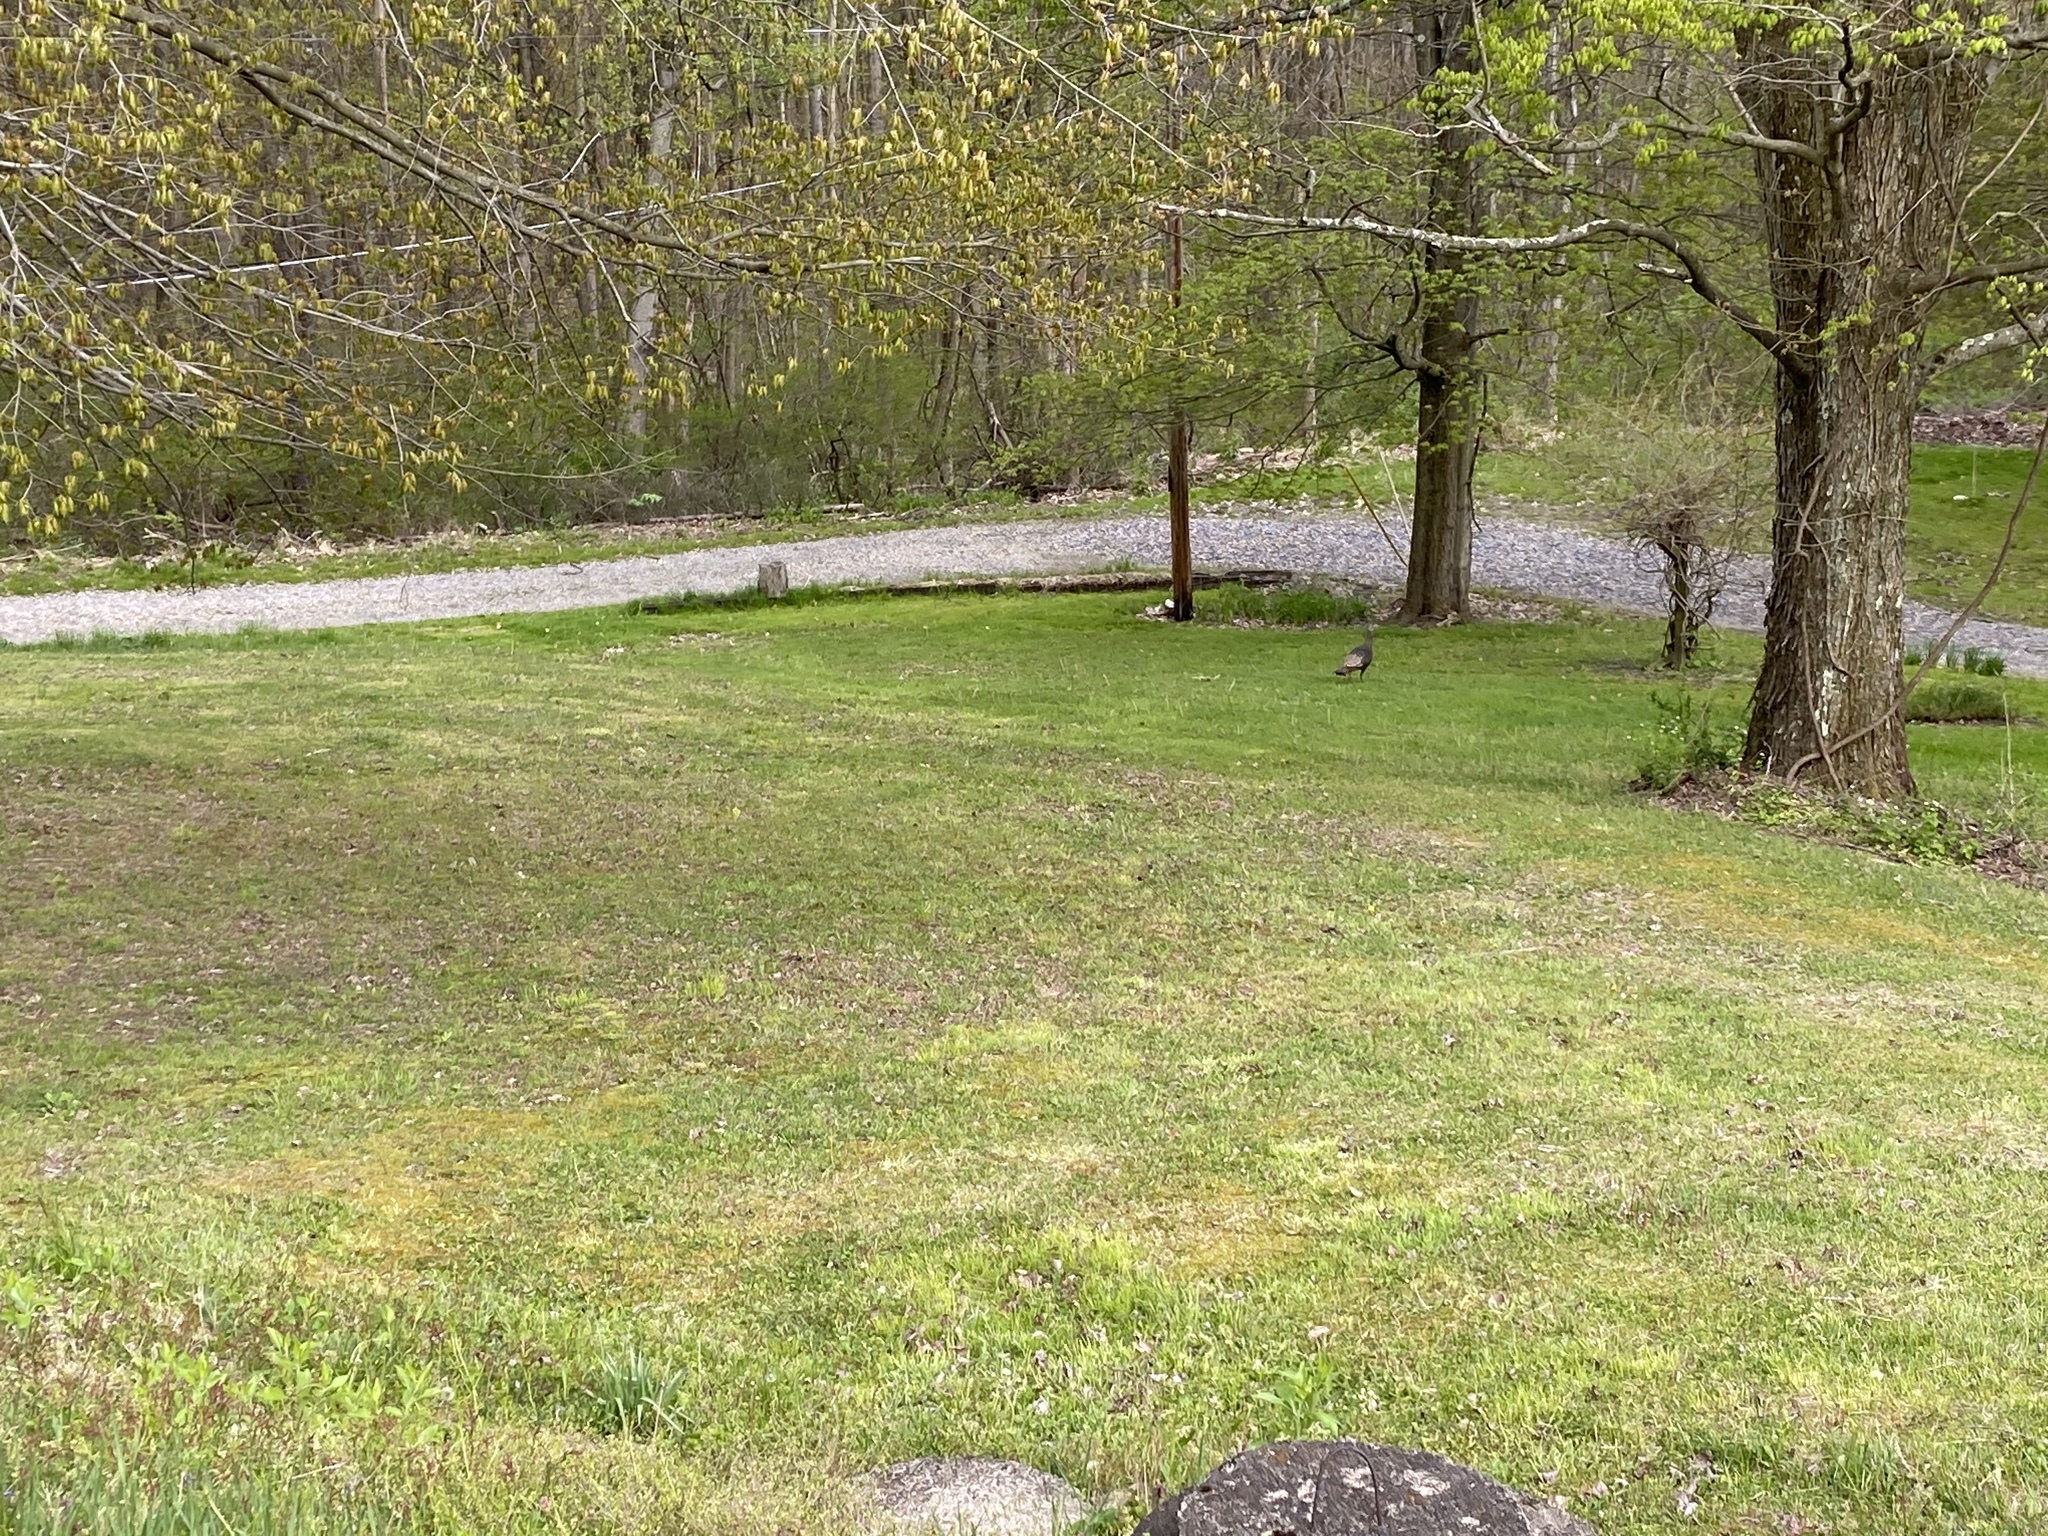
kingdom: Animalia
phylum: Chordata
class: Aves
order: Galliformes
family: Phasianidae
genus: Meleagris
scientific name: Meleagris gallopavo
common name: Wild turkey
